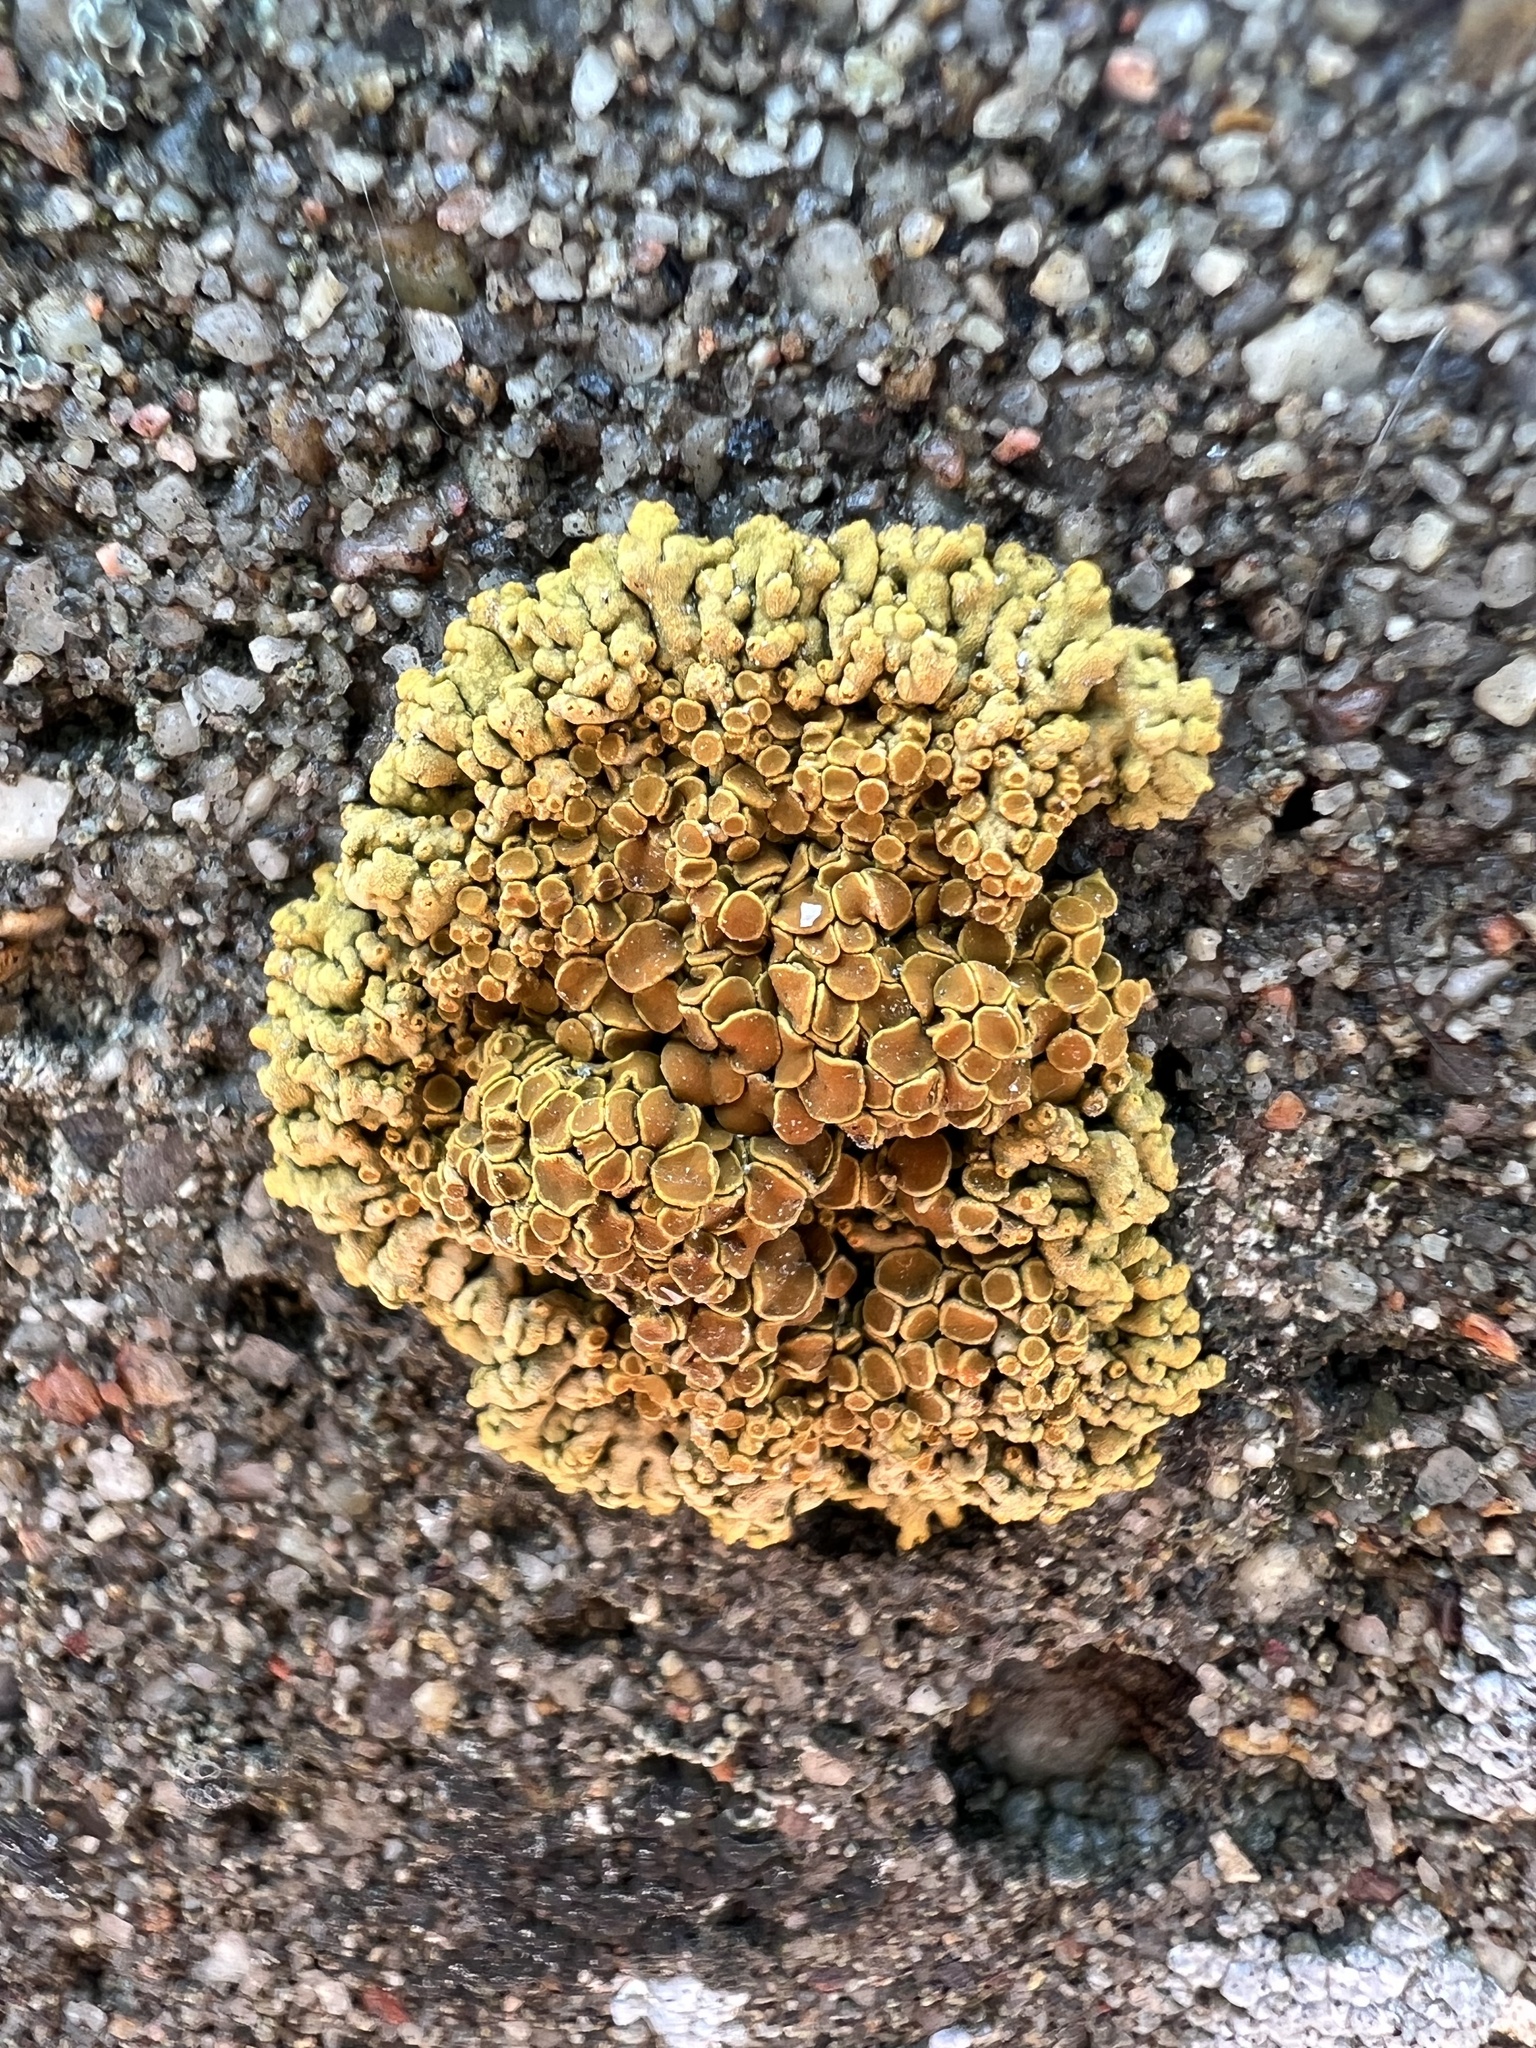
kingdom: Fungi
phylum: Ascomycota
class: Lecanoromycetes
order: Teloschistales
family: Teloschistaceae
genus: Xanthoria
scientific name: Xanthoria elegans
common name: Elegant sunburst lichen
